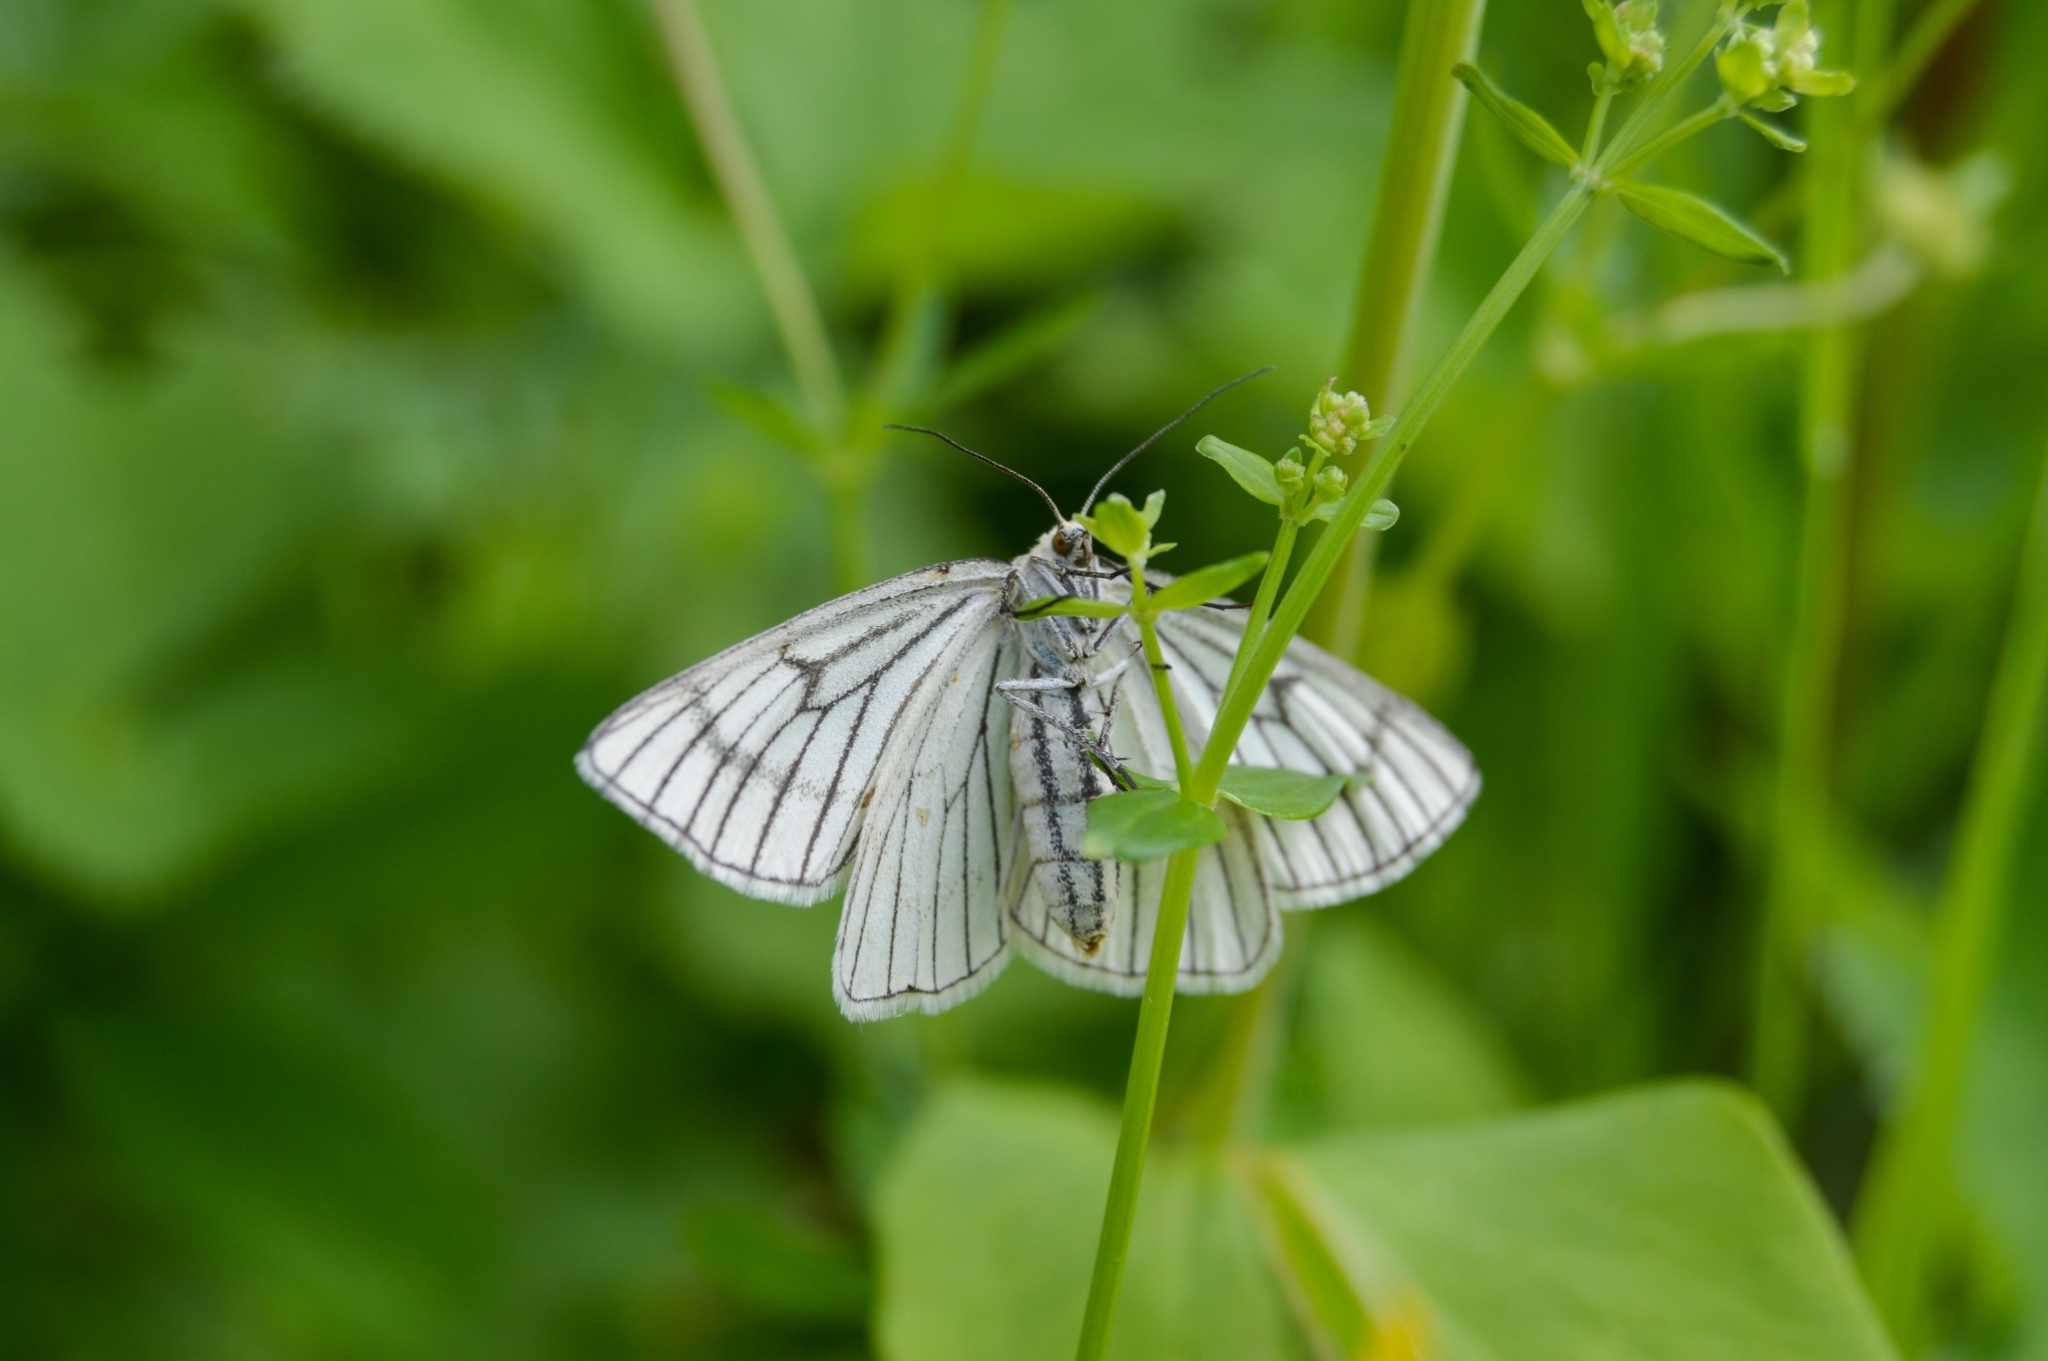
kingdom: Animalia
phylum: Arthropoda
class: Insecta
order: Lepidoptera
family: Geometridae
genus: Siona
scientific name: Siona lineata
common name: Black-veined moth
